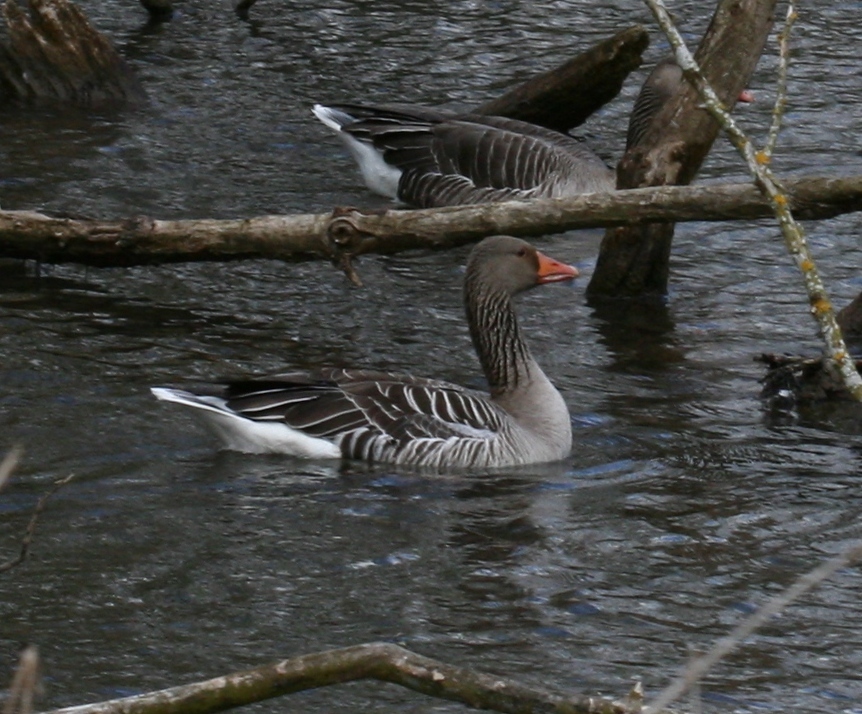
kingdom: Animalia
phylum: Chordata
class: Aves
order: Anseriformes
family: Anatidae
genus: Anser
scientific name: Anser anser
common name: Greylag goose
